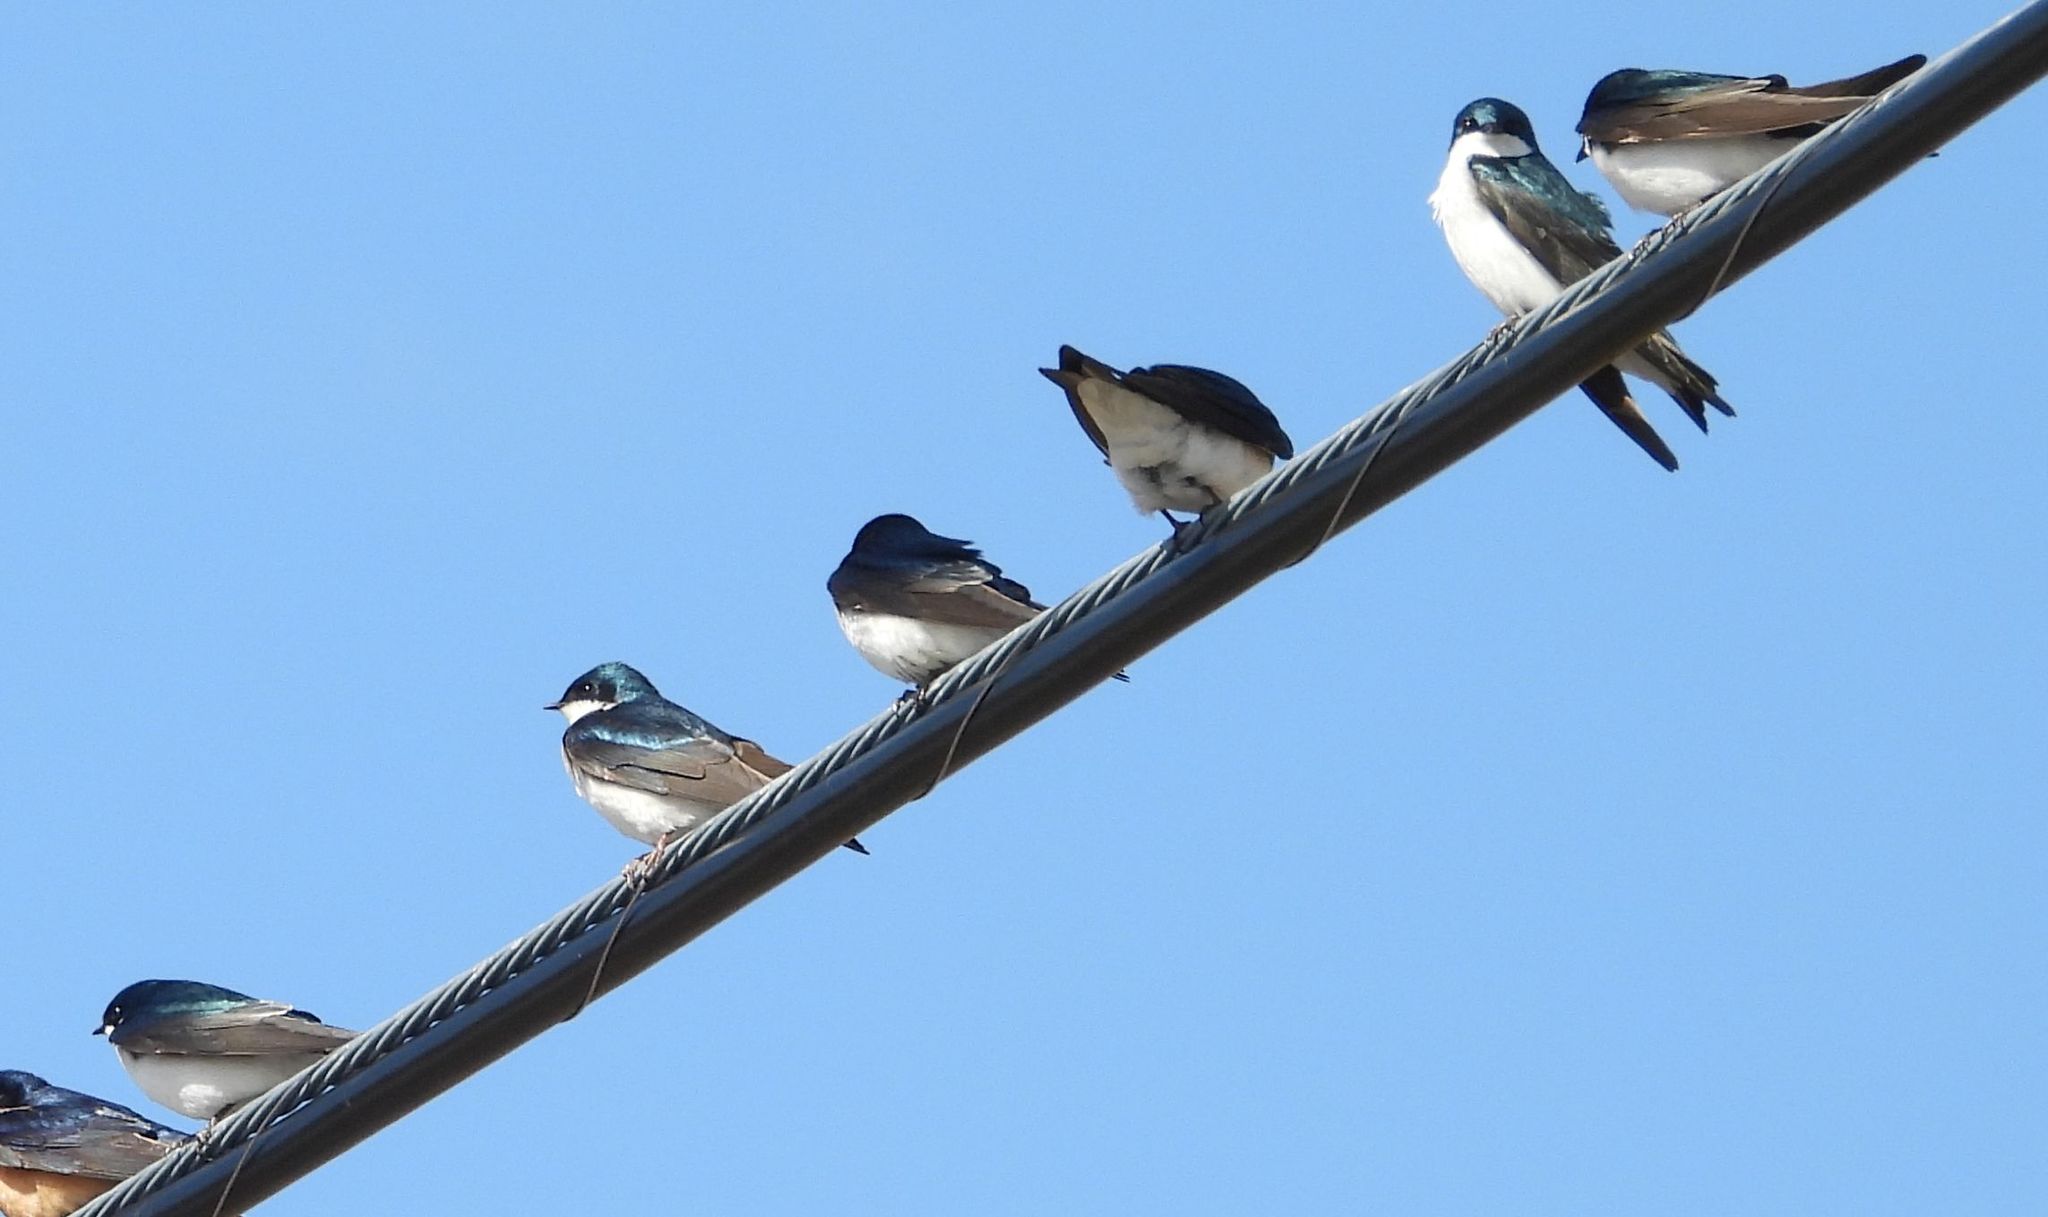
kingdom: Animalia
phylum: Chordata
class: Aves
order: Passeriformes
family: Hirundinidae
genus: Tachycineta
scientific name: Tachycineta bicolor
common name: Tree swallow
